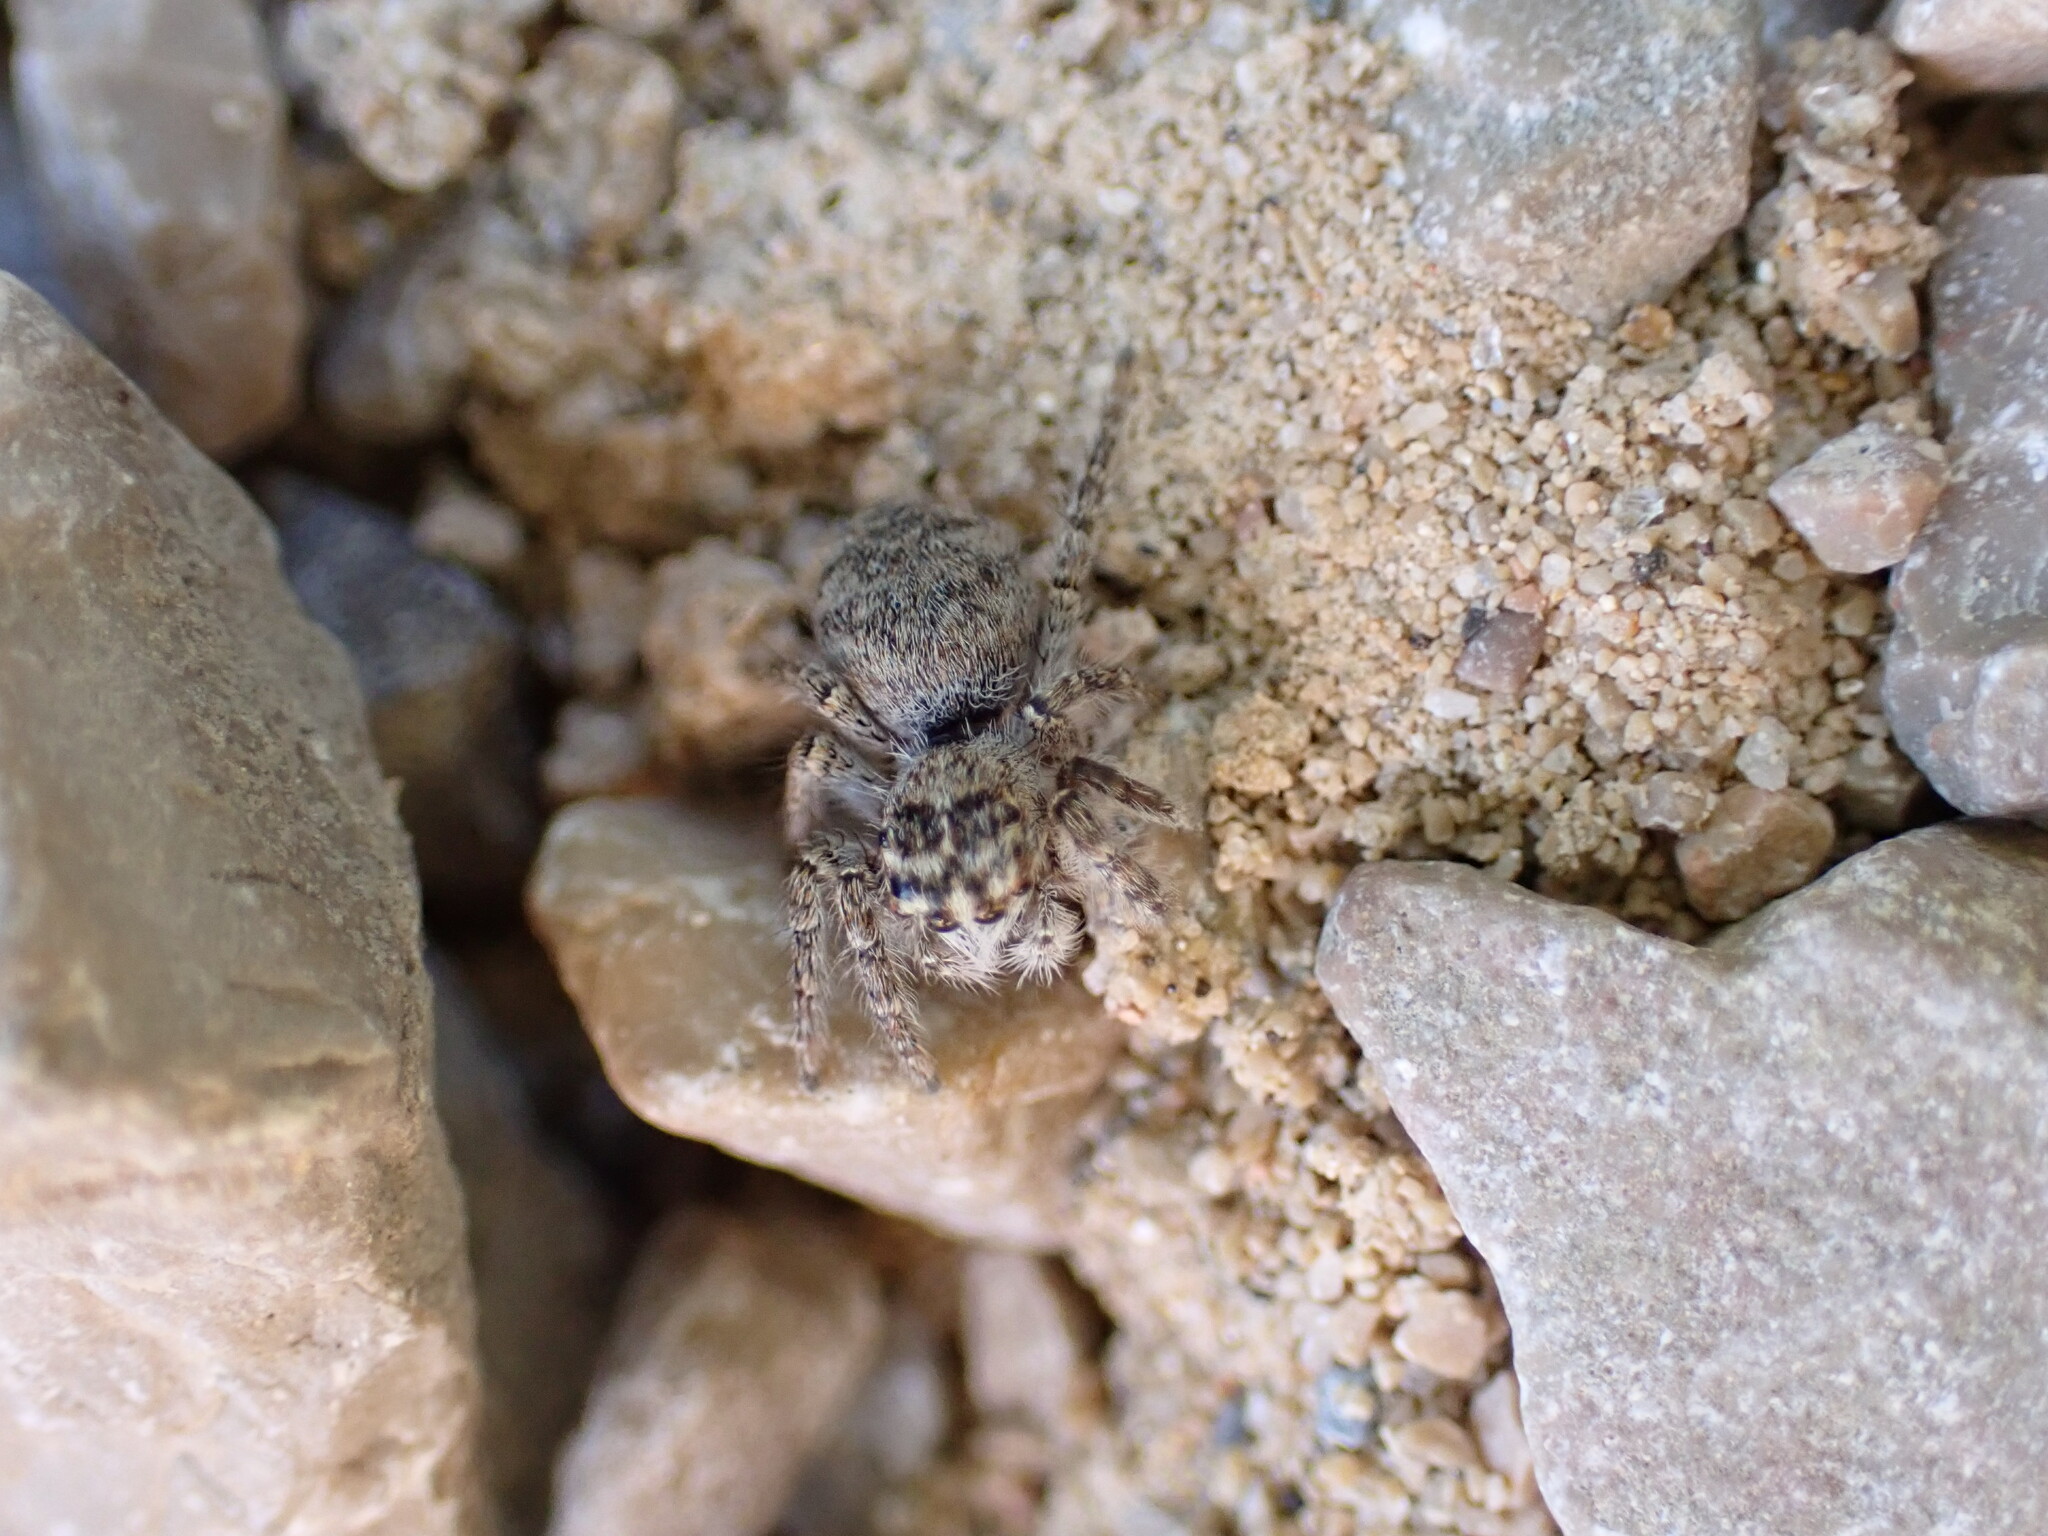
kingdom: Animalia
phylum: Arthropoda
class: Arachnida
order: Araneae
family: Salticidae
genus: Philaeus
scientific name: Philaeus chrysops
